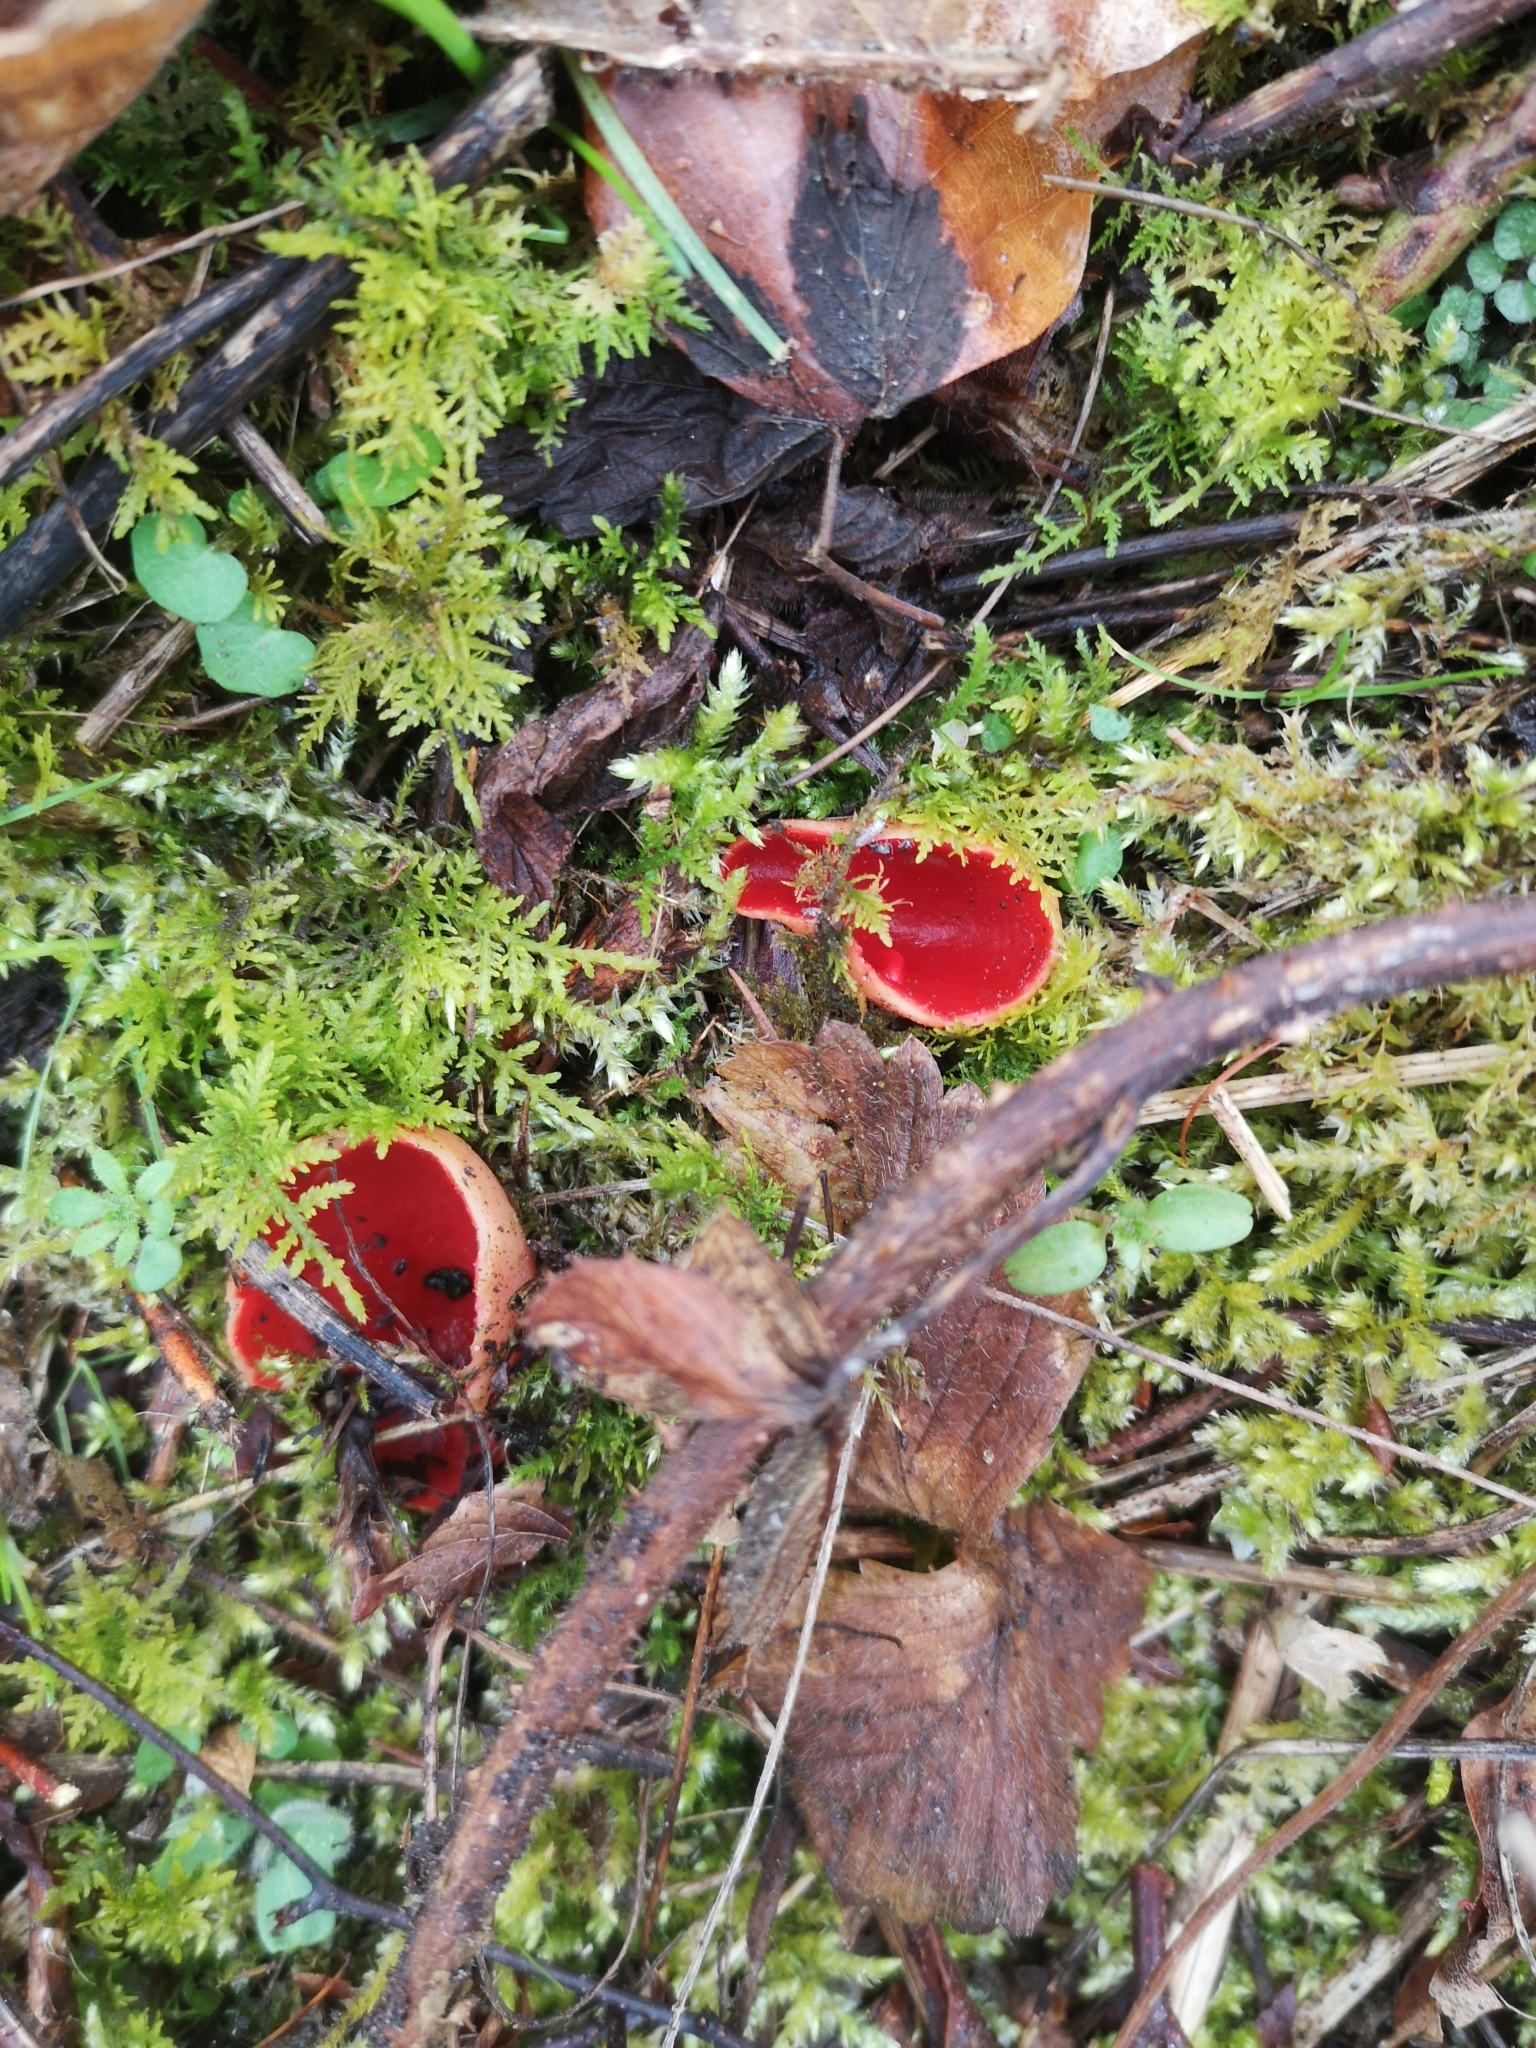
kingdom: Fungi
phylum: Ascomycota
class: Pezizomycetes
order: Pezizales
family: Sarcoscyphaceae
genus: Sarcoscypha
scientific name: Sarcoscypha
